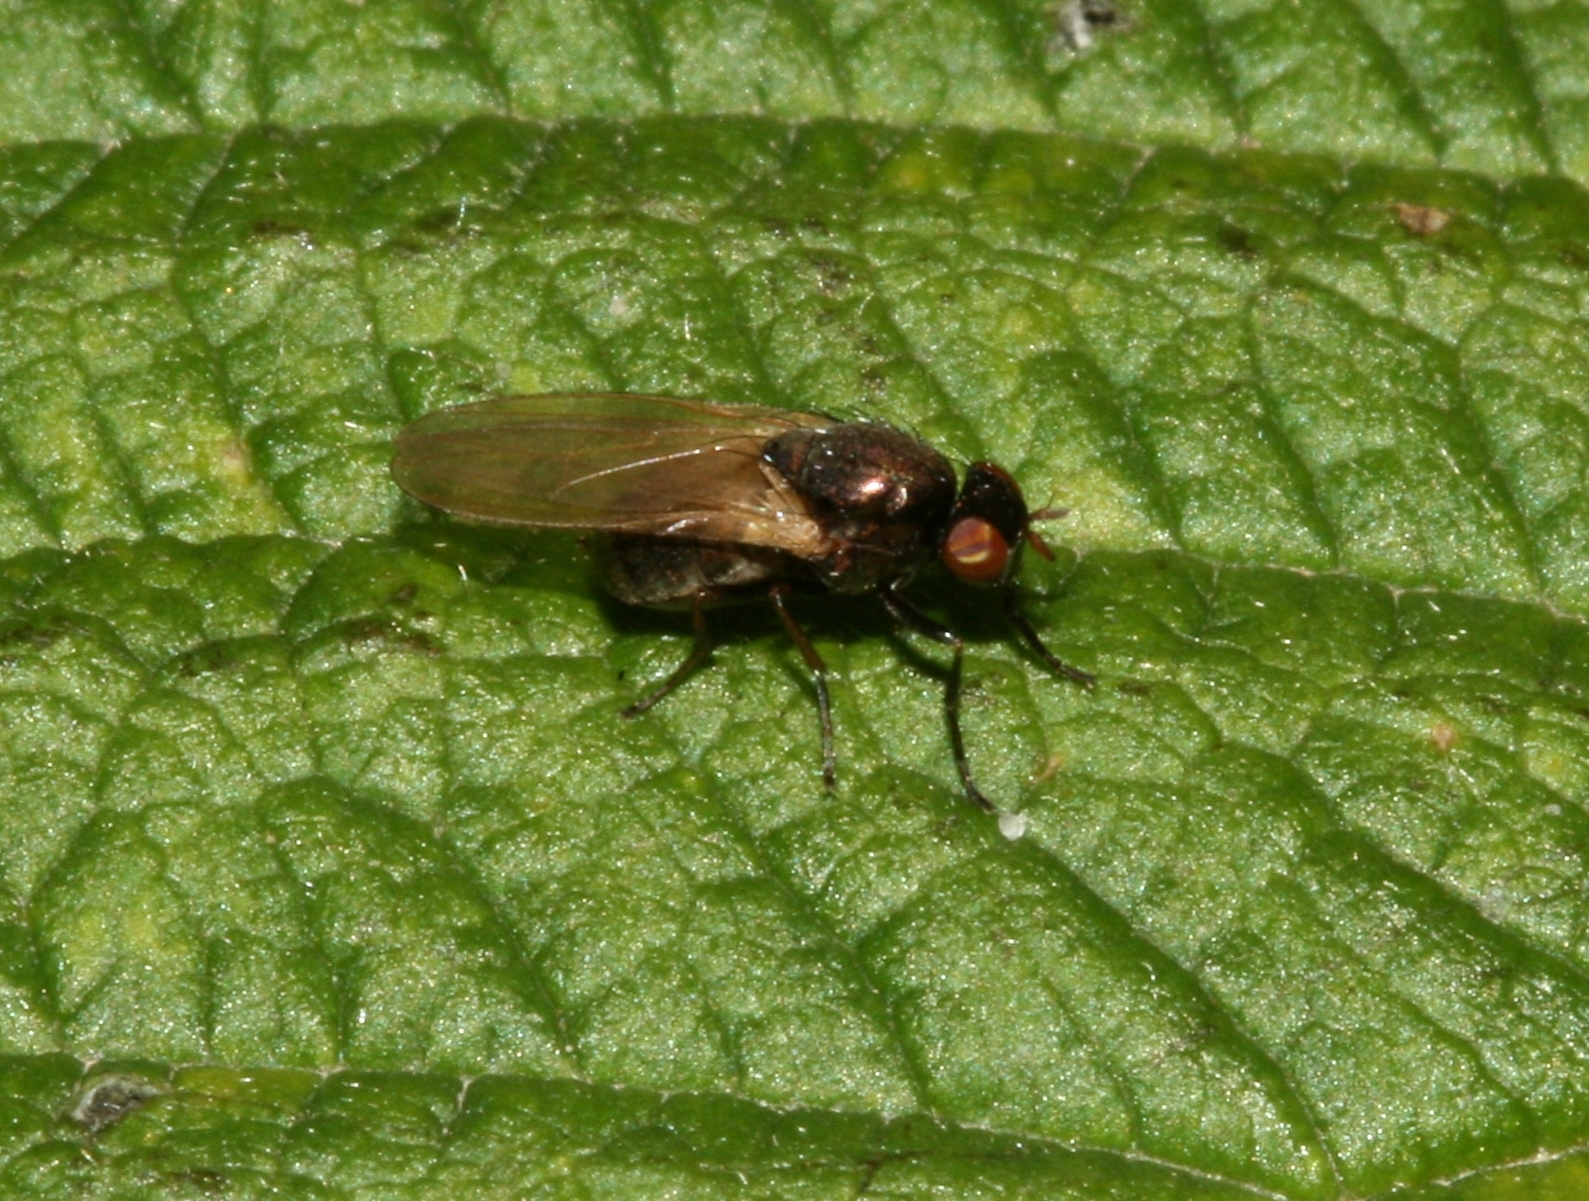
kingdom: Animalia
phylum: Arthropoda
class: Insecta
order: Diptera
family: Lauxaniidae
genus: Calliopum
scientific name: Calliopum
